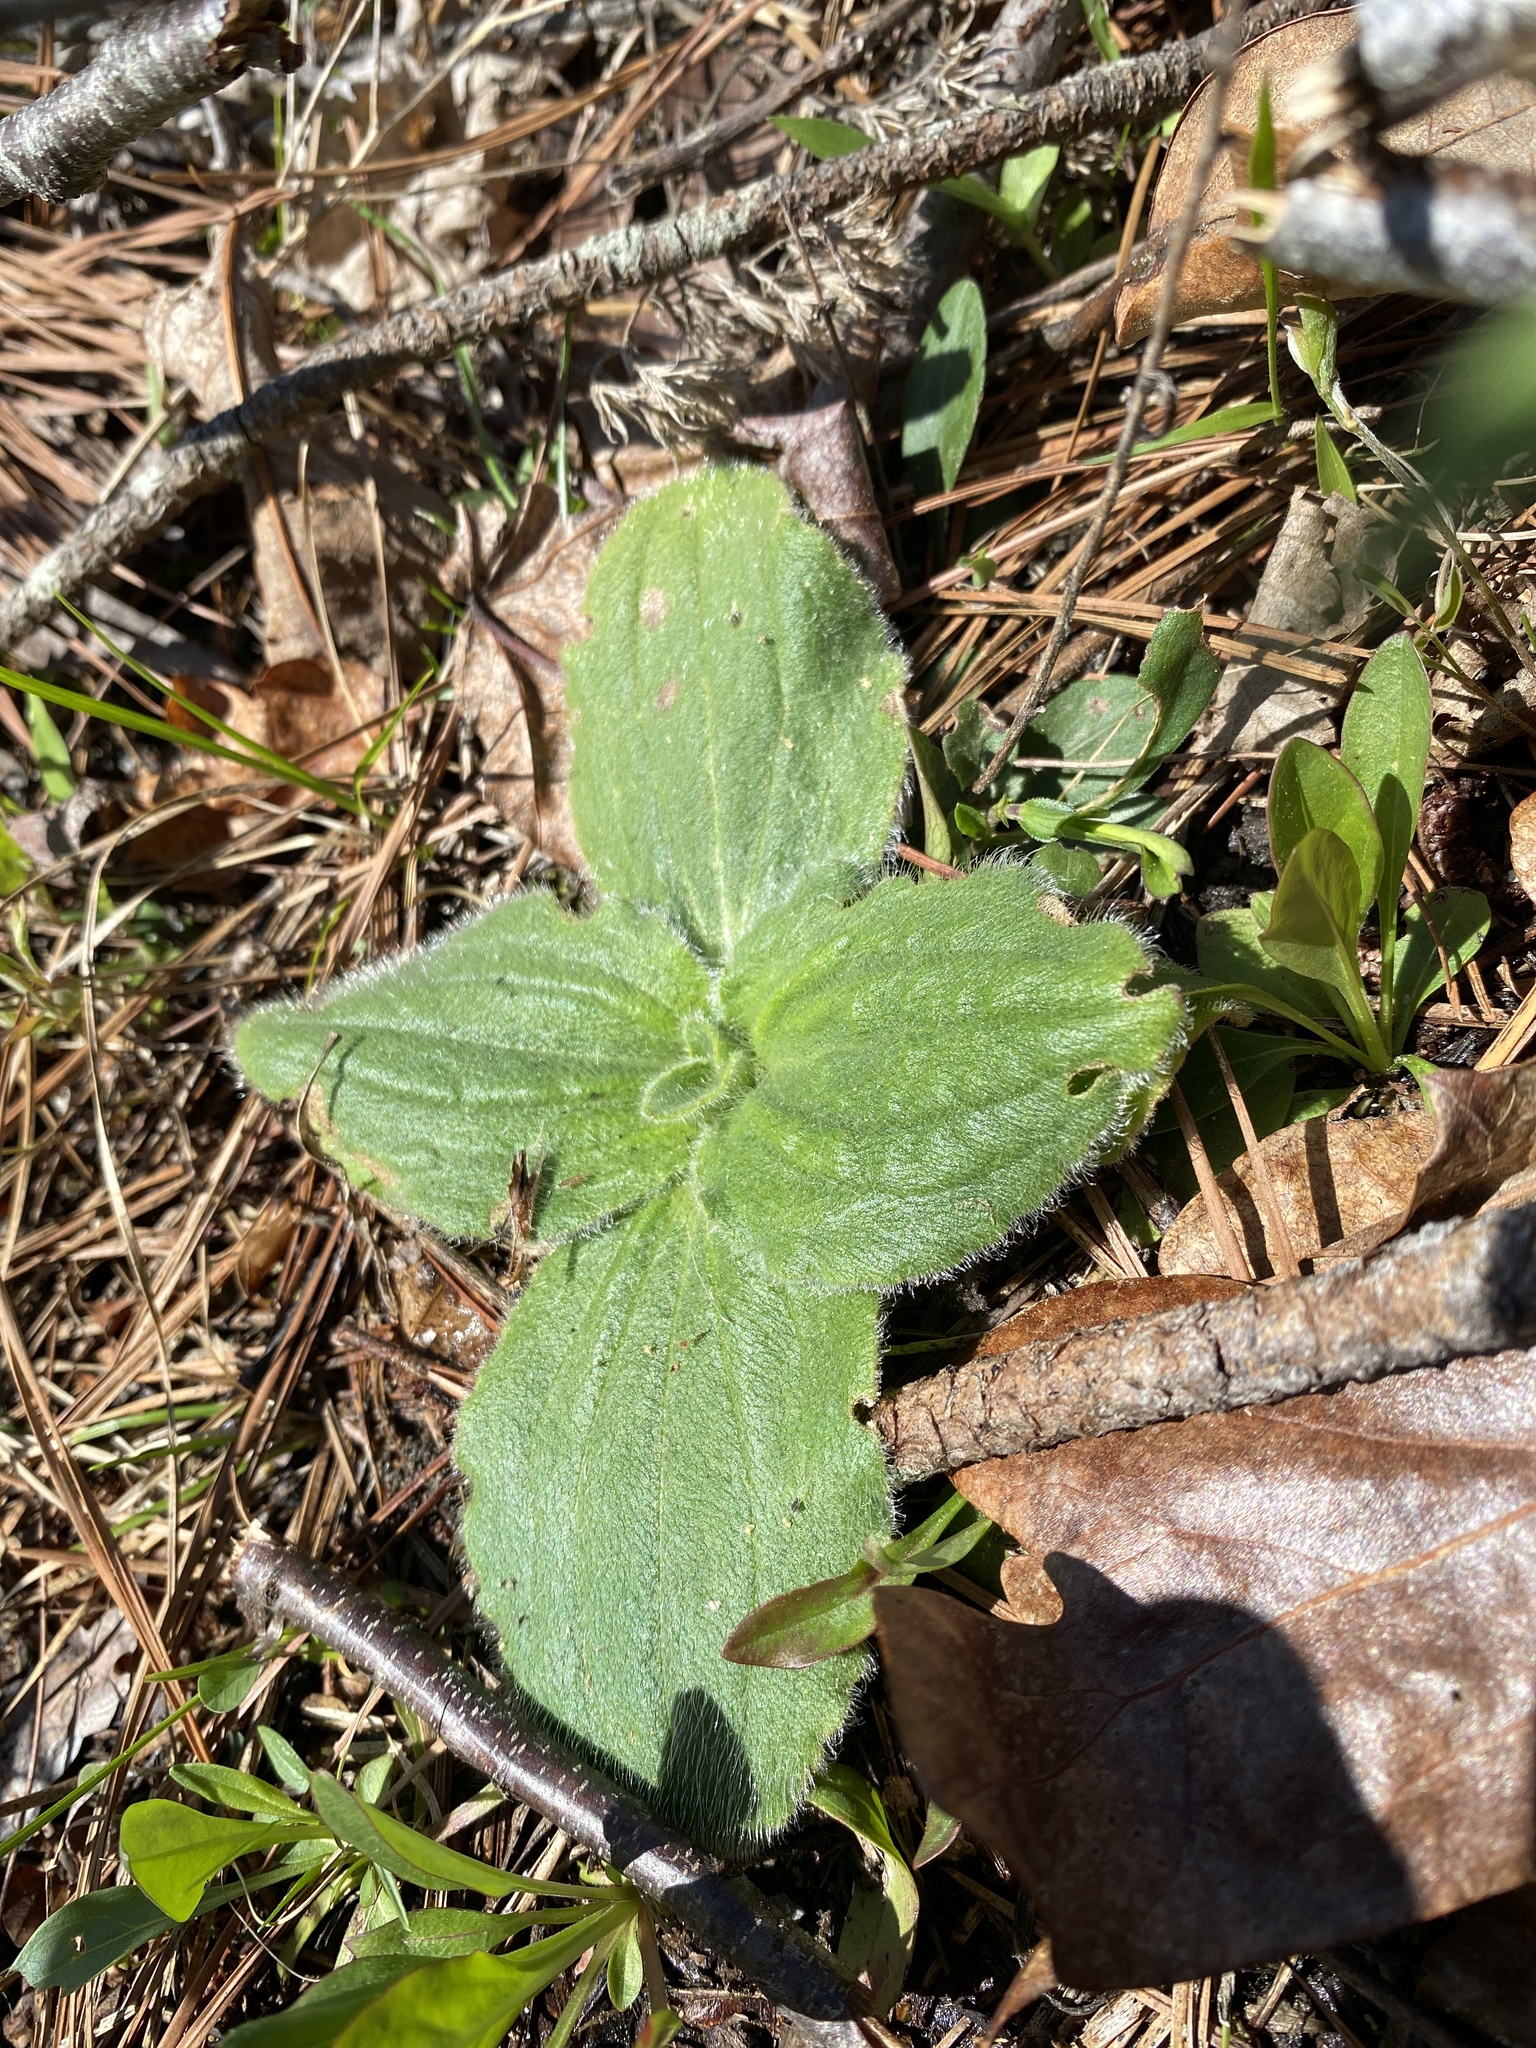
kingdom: Plantae
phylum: Tracheophyta
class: Magnoliopsida
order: Asterales
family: Asteraceae
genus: Arnica
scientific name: Arnica acaulis
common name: Common leopardbane
